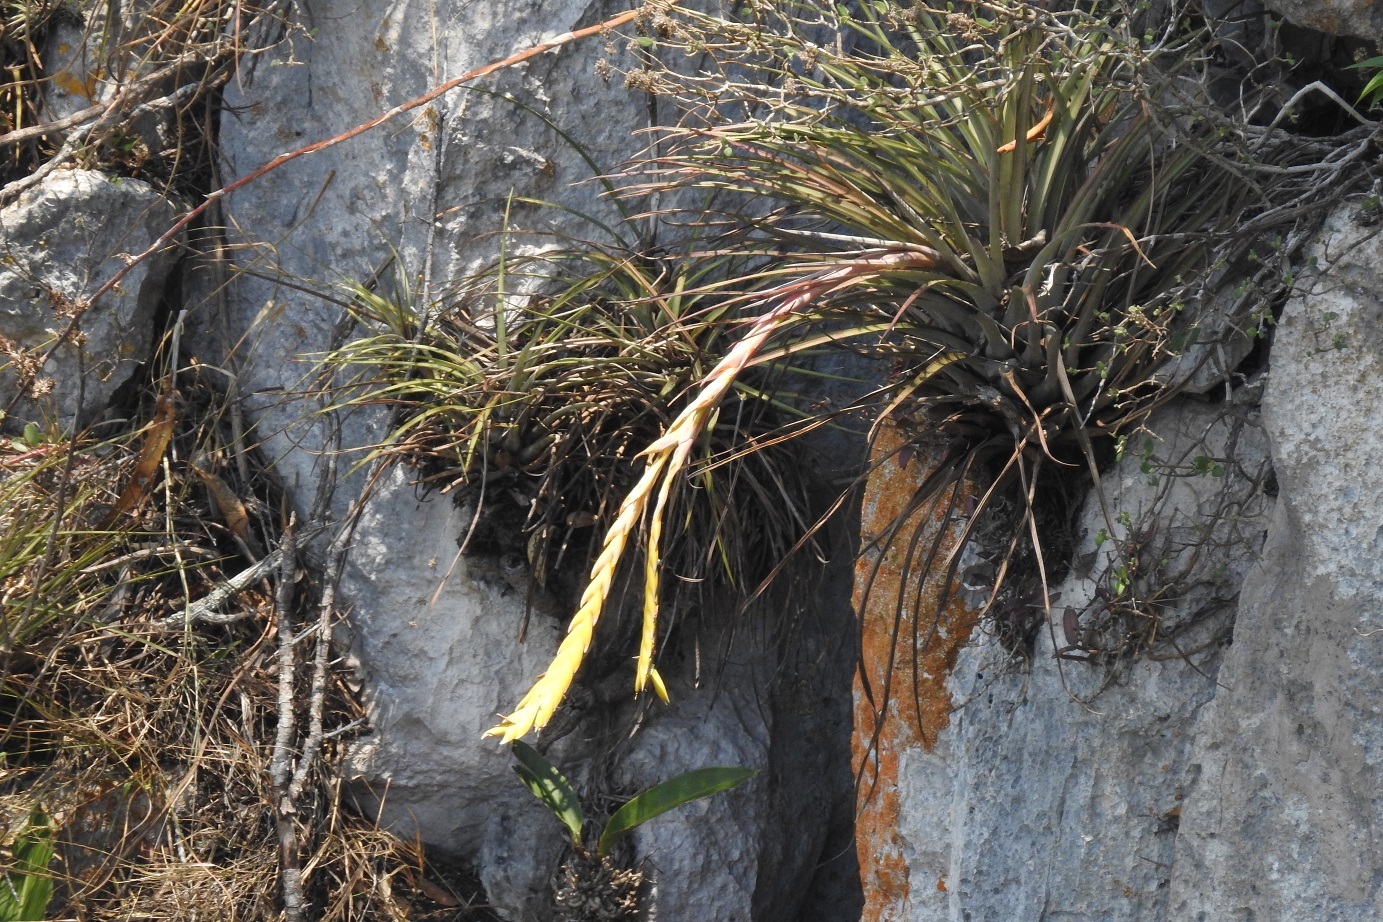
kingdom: Plantae
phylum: Tracheophyta
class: Liliopsida
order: Poales
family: Bromeliaceae
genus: Tillandsia
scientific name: Tillandsia fasciculata
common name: Giant airplant
